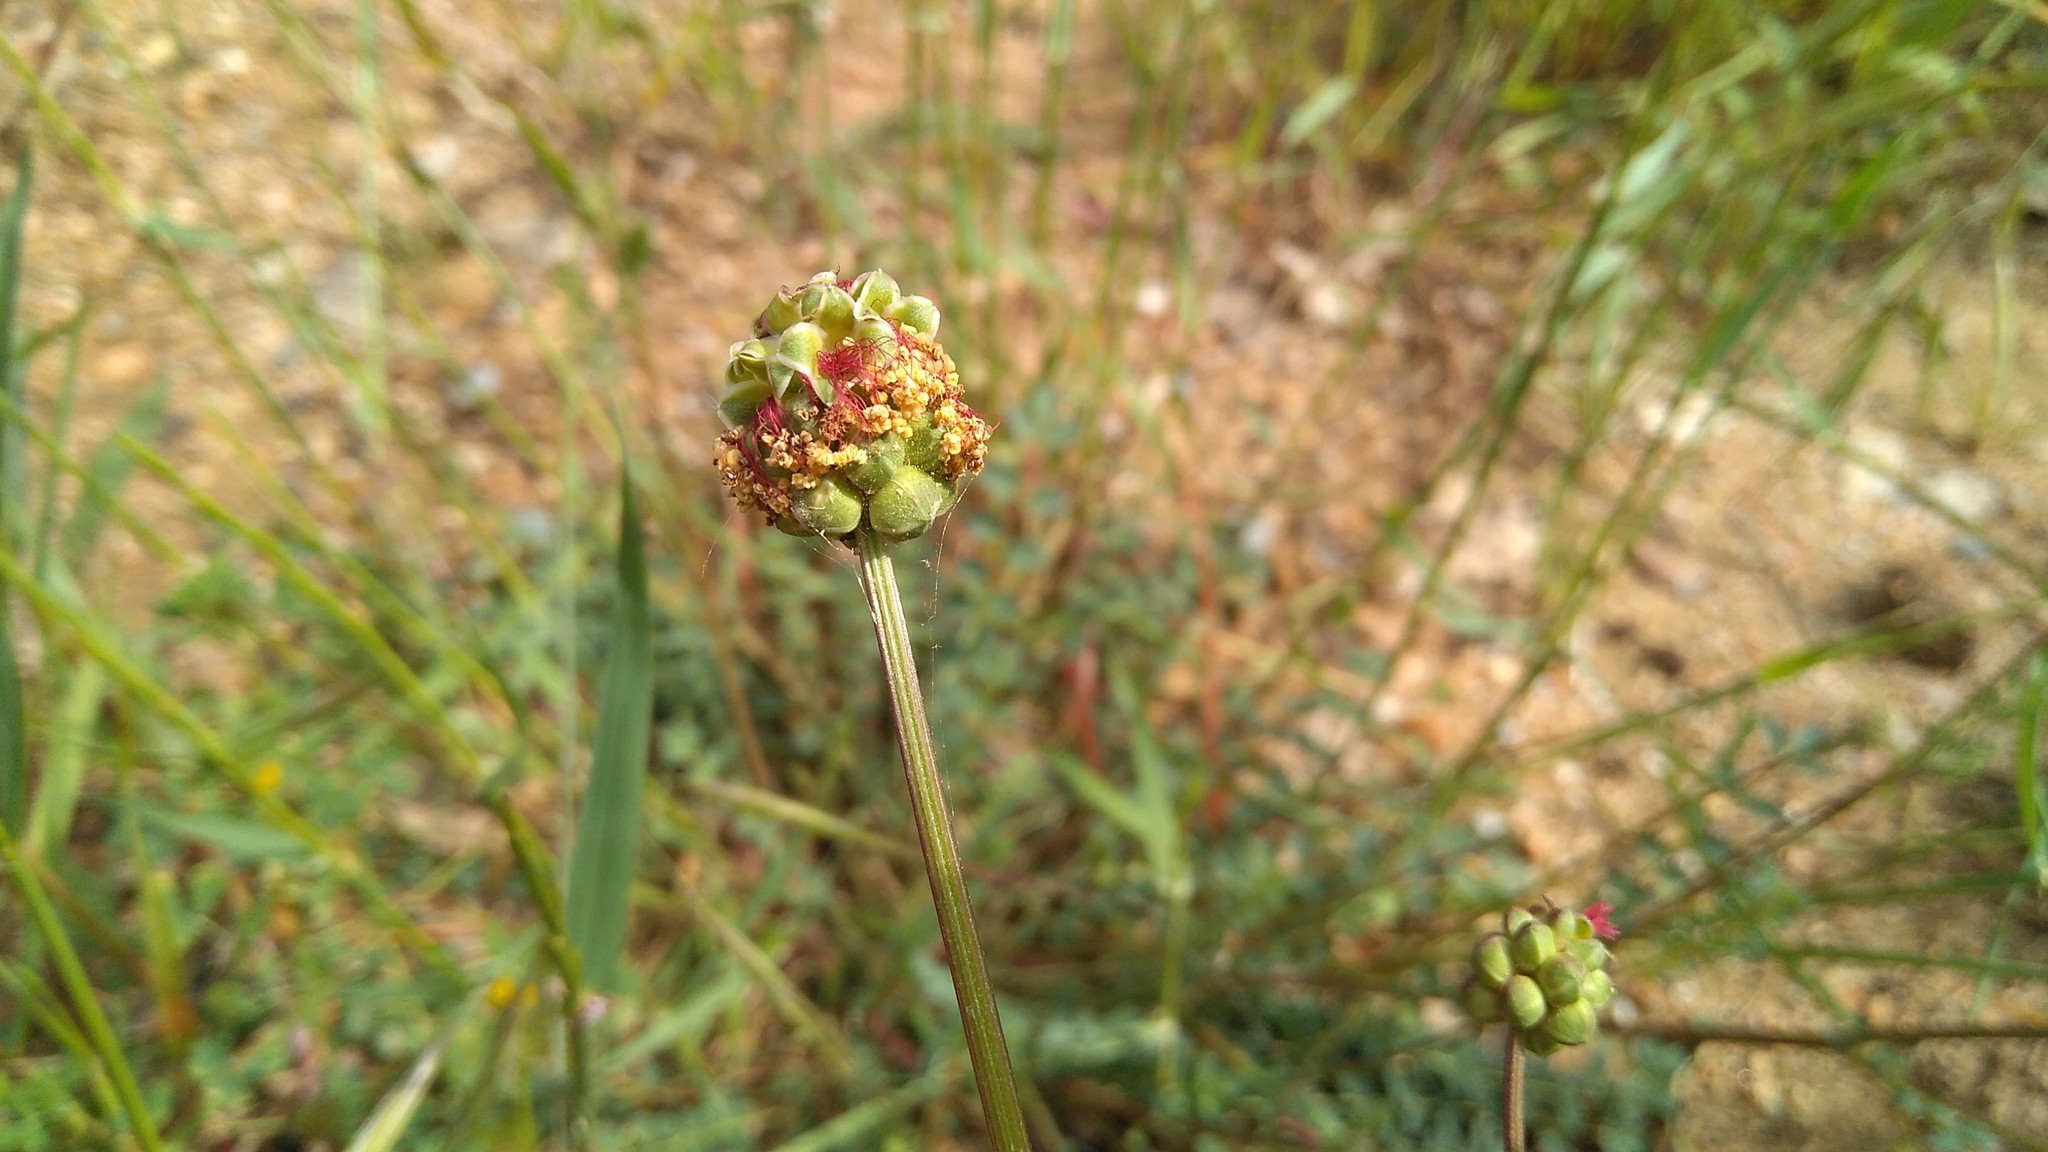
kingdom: Plantae
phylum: Tracheophyta
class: Magnoliopsida
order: Rosales
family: Rosaceae
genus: Poterium
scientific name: Poterium sanguisorba
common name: Salad burnet
